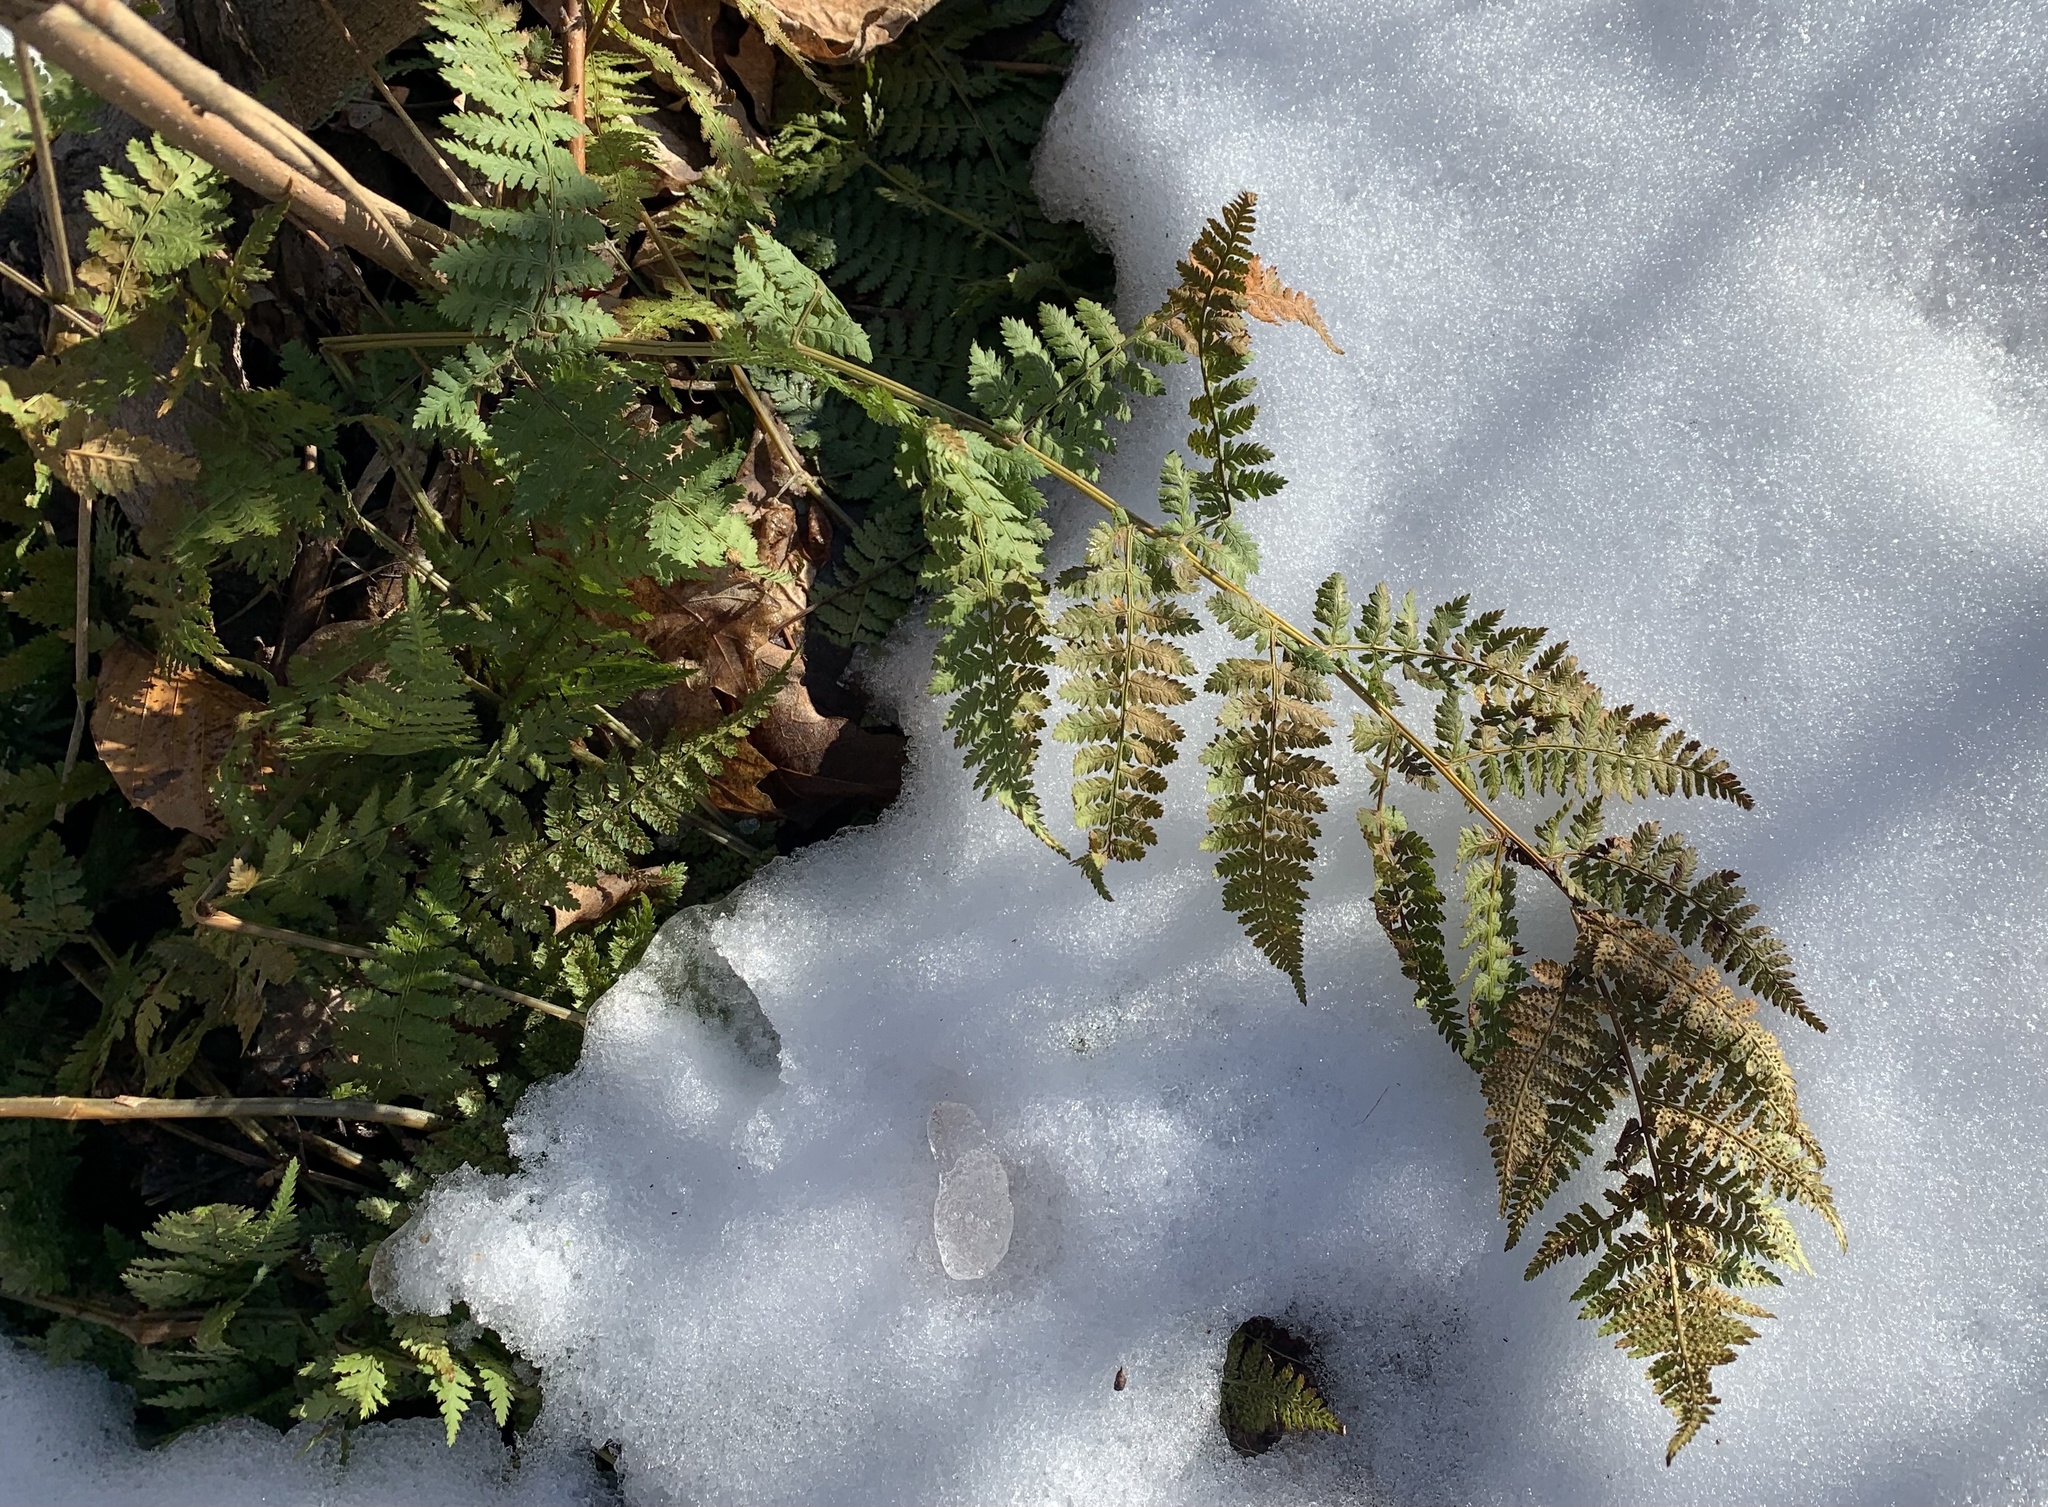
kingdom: Plantae
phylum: Tracheophyta
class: Polypodiopsida
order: Polypodiales
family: Dryopteridaceae
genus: Dryopteris
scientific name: Dryopteris intermedia
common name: Evergreen wood fern
